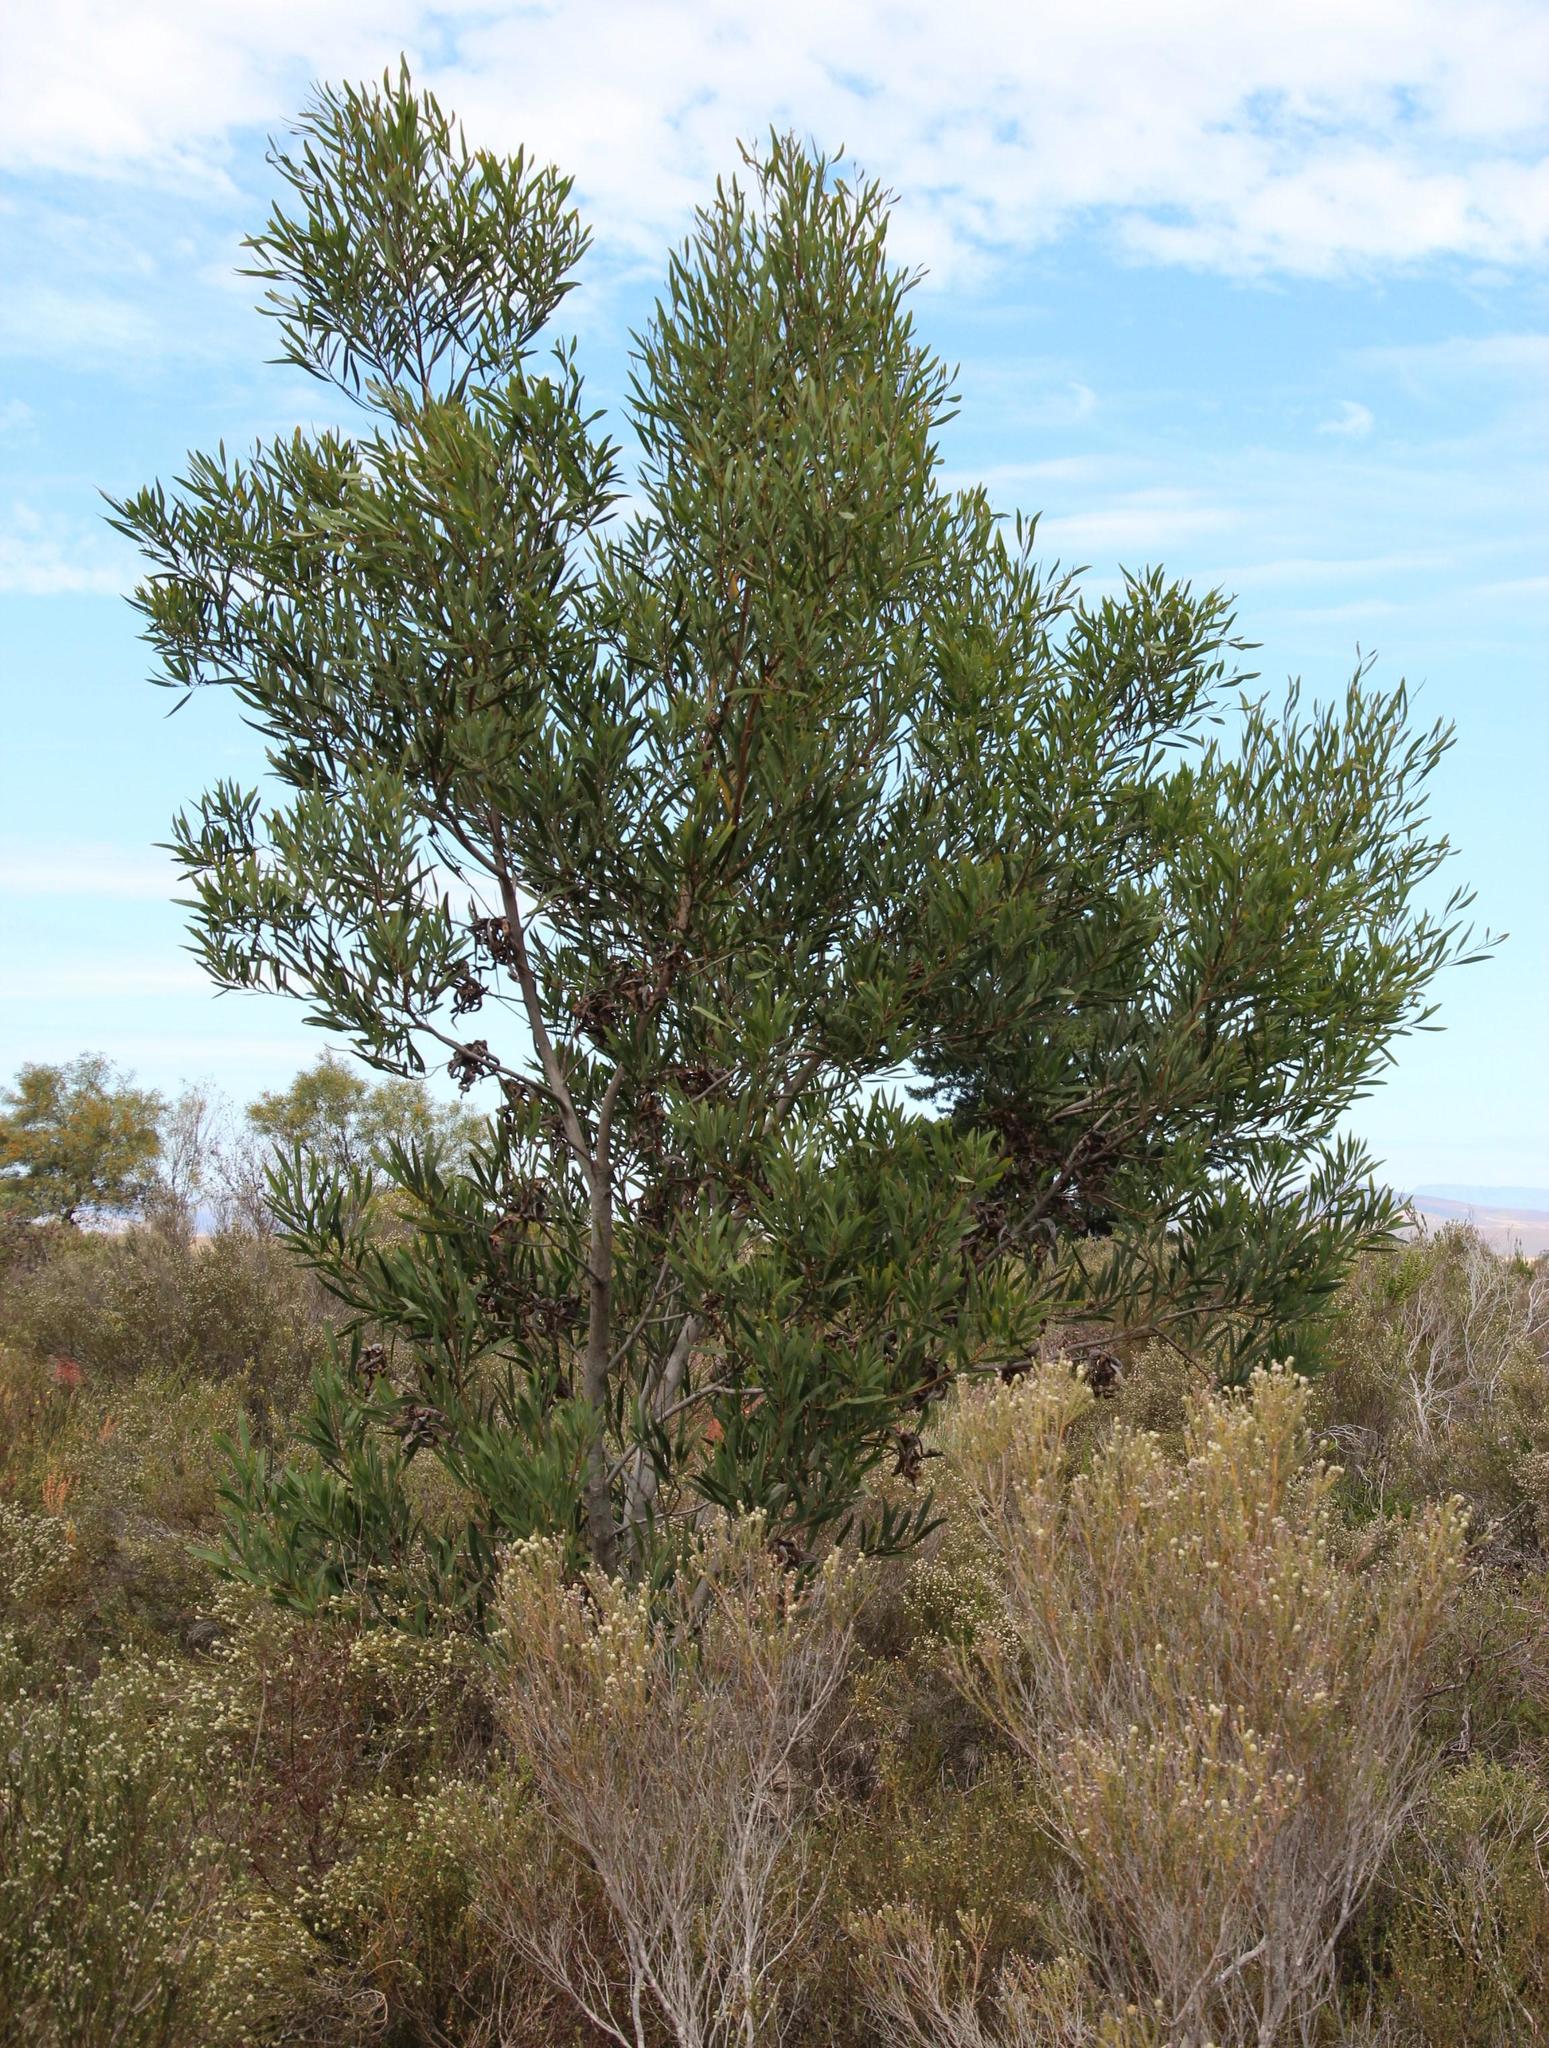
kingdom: Plantae
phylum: Tracheophyta
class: Magnoliopsida
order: Fabales
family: Fabaceae
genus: Acacia
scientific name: Acacia cyclops
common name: Coastal wattle
